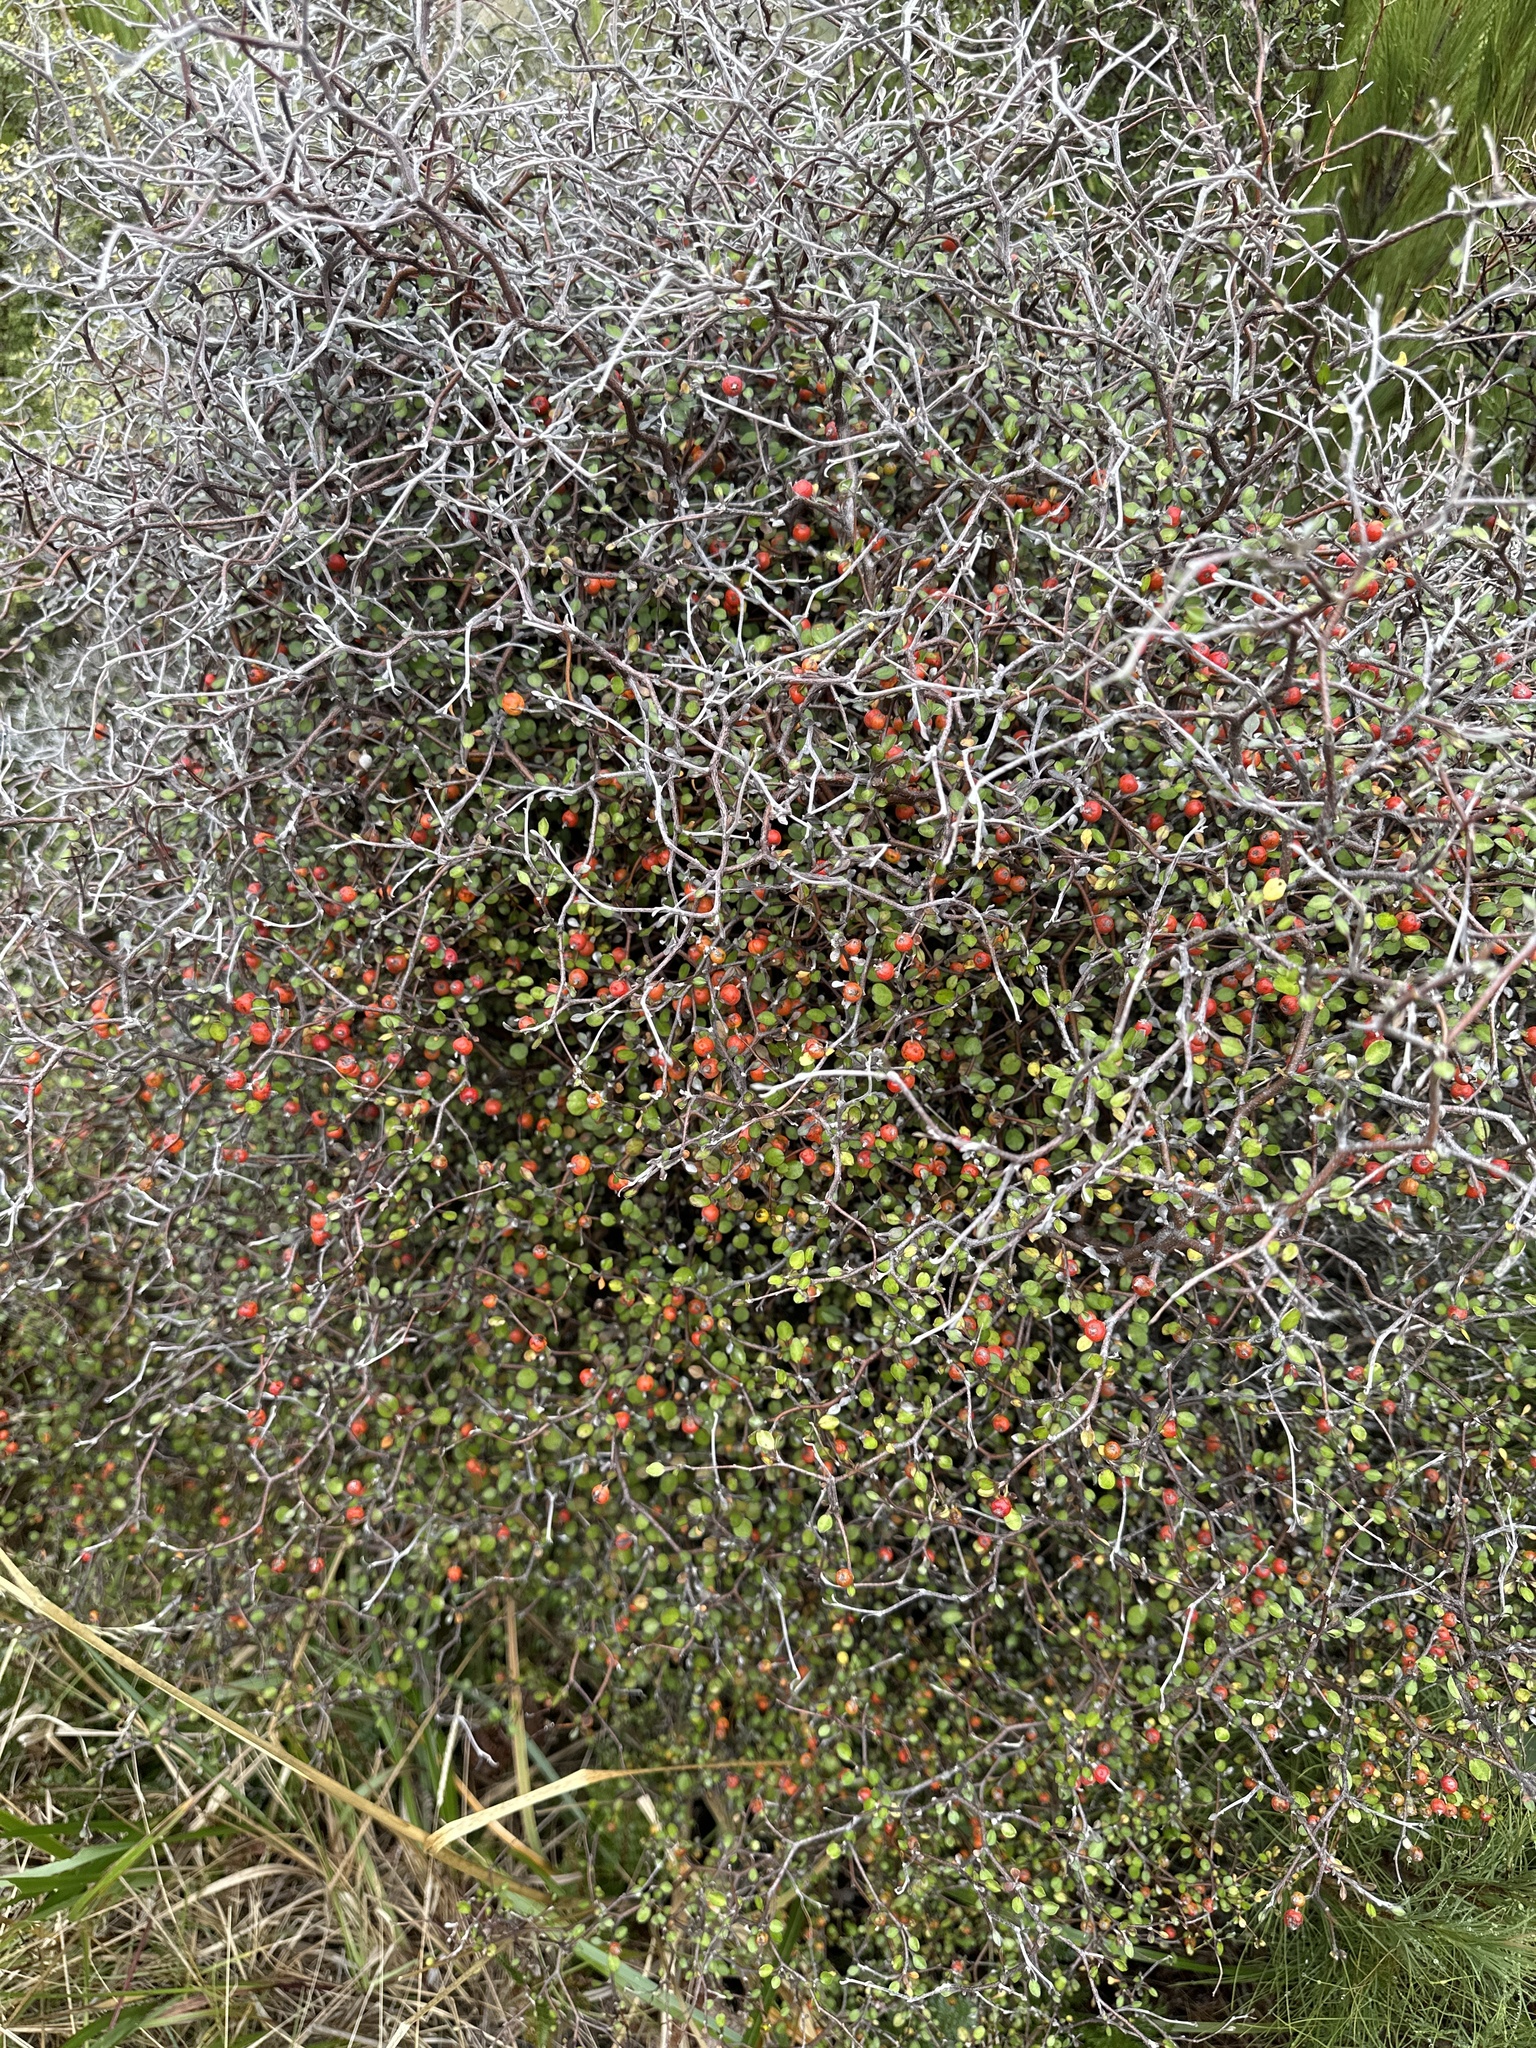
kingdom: Plantae
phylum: Tracheophyta
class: Magnoliopsida
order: Asterales
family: Argophyllaceae
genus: Corokia
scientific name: Corokia cotoneaster
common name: Wire nettingbush
